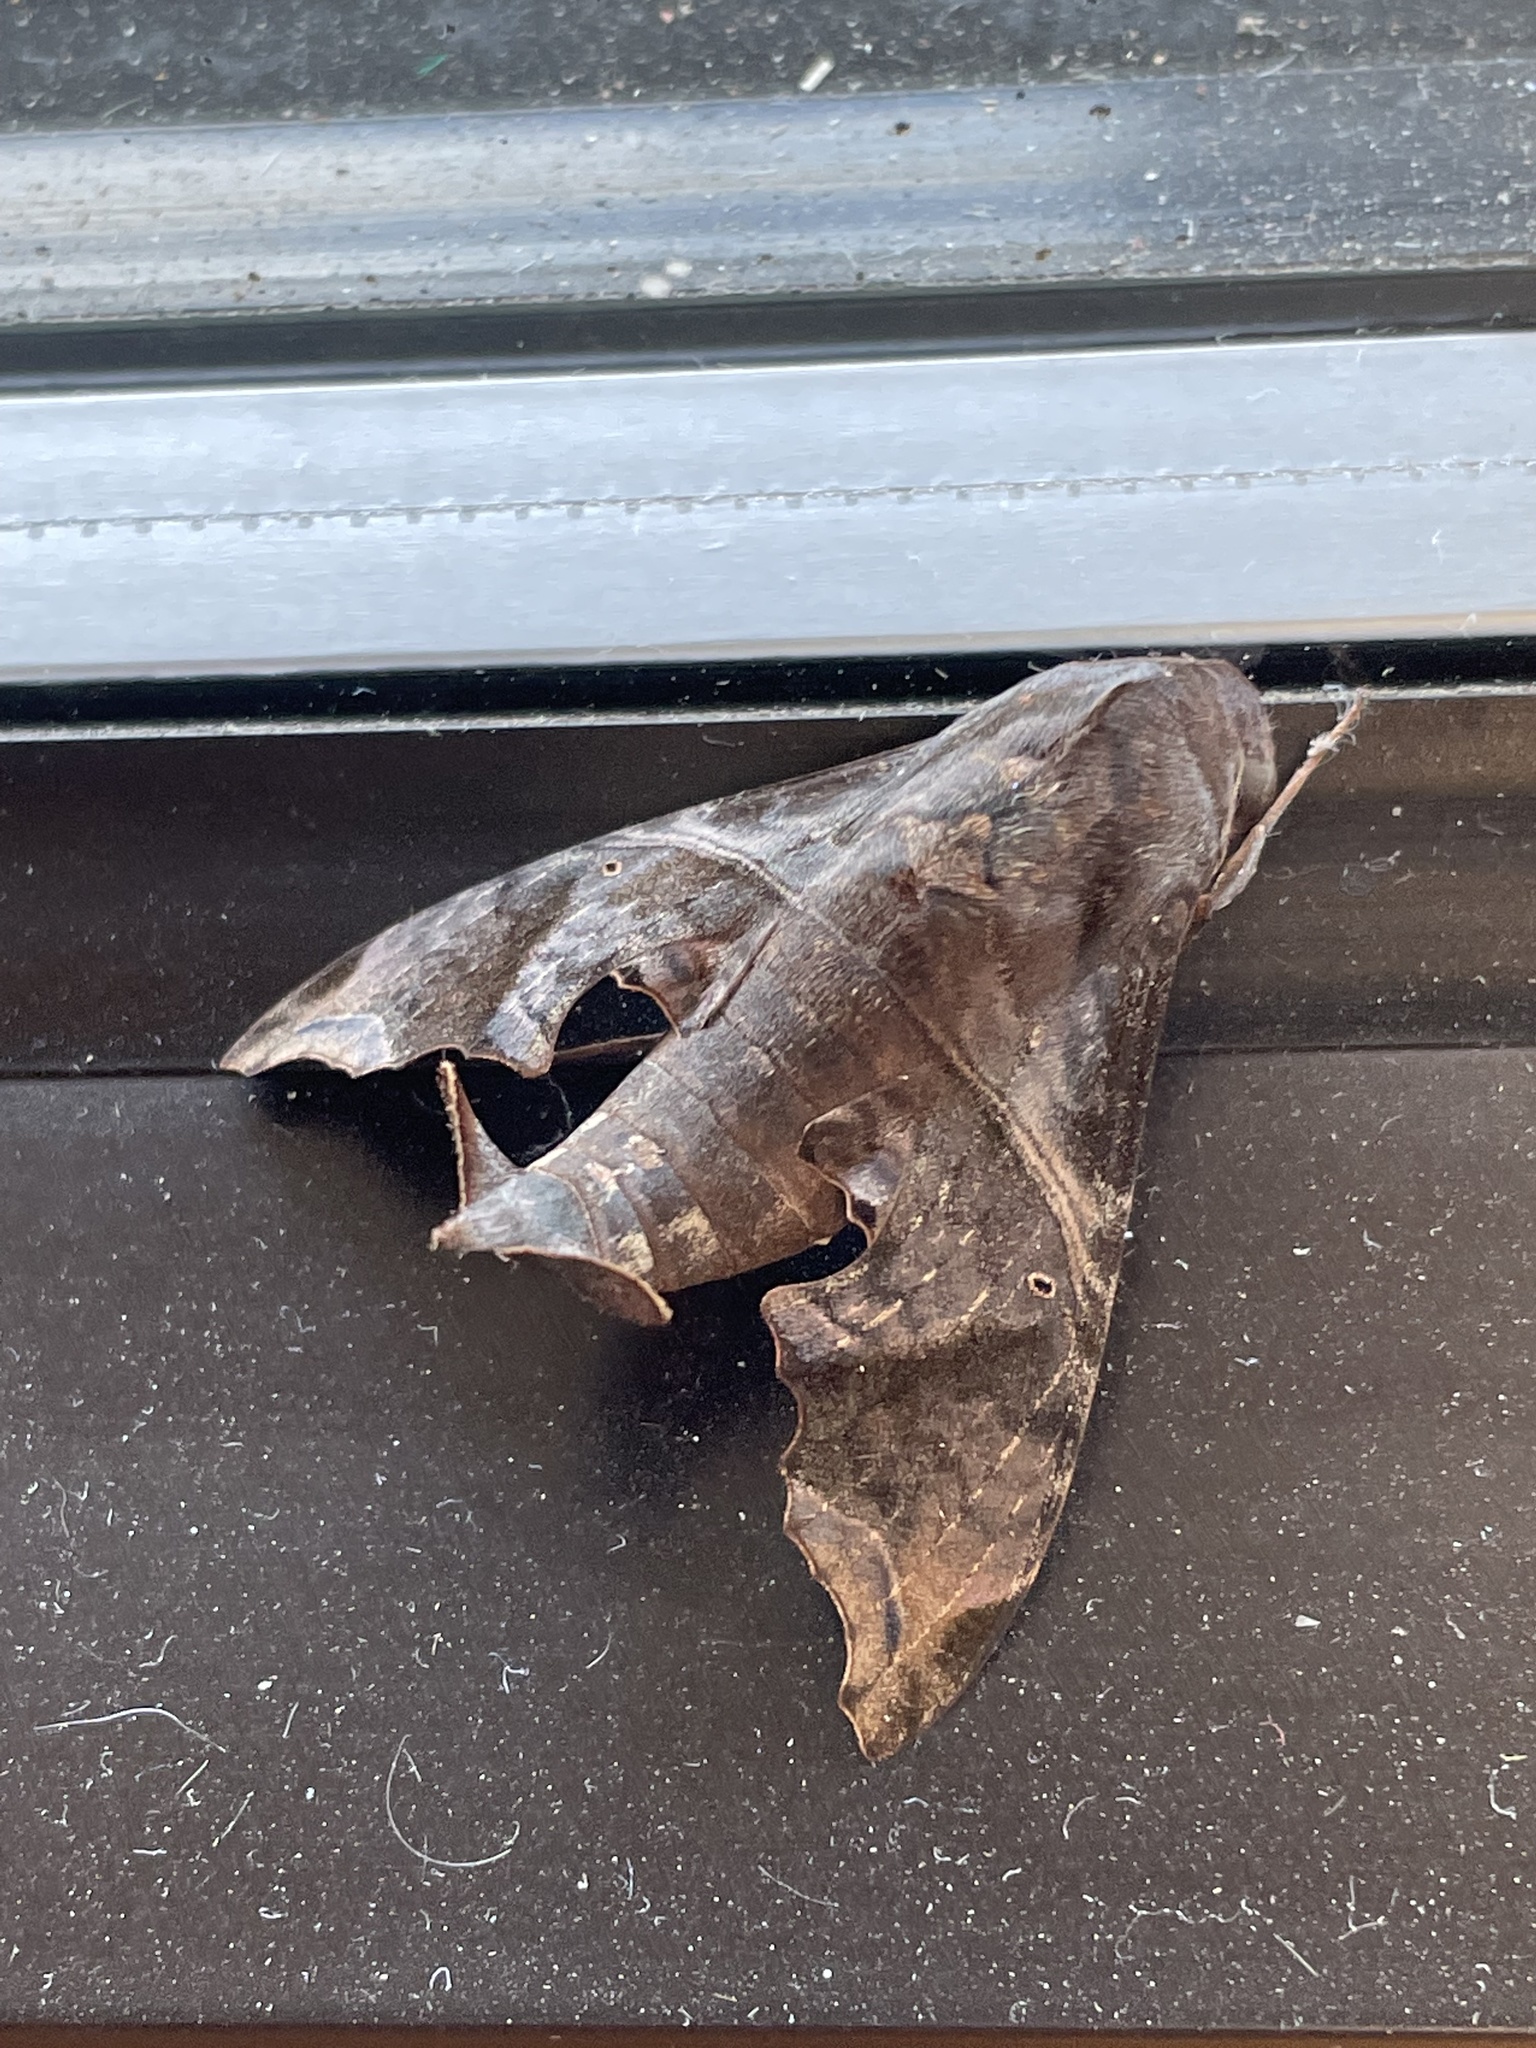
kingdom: Animalia
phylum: Arthropoda
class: Insecta
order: Lepidoptera
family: Sphingidae
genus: Enyo
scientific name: Enyo lugubris
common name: Mournful sphinx
